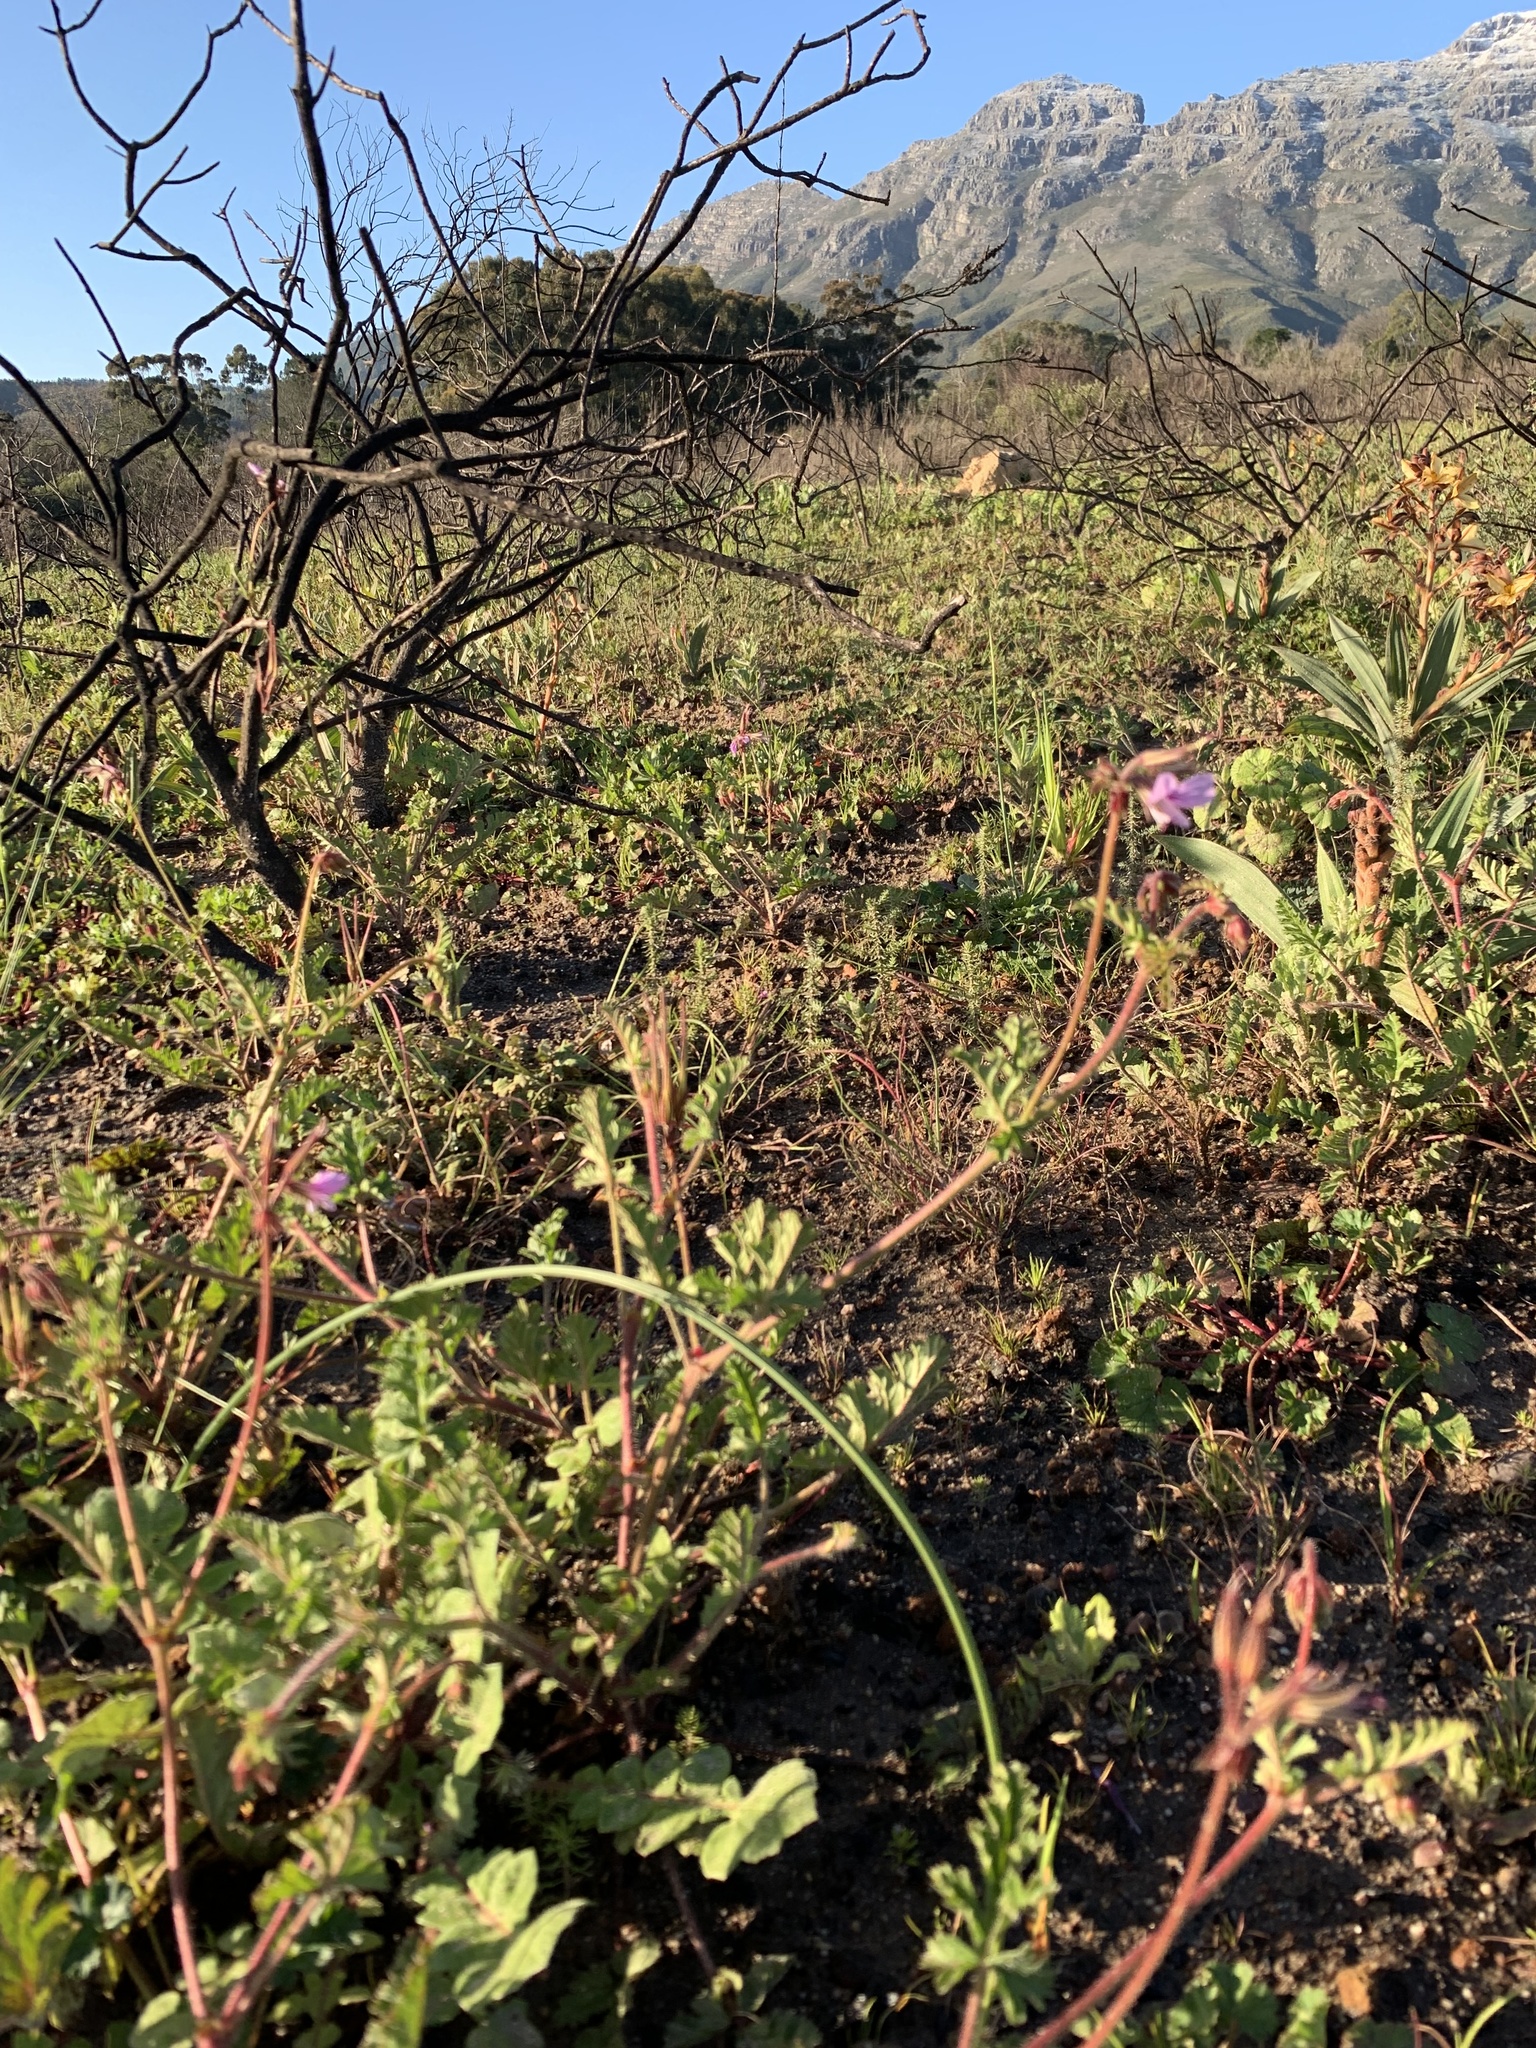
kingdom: Plantae
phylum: Tracheophyta
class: Magnoliopsida
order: Geraniales
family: Geraniaceae
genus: Pelargonium
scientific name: Pelargonium myrrhifolium
